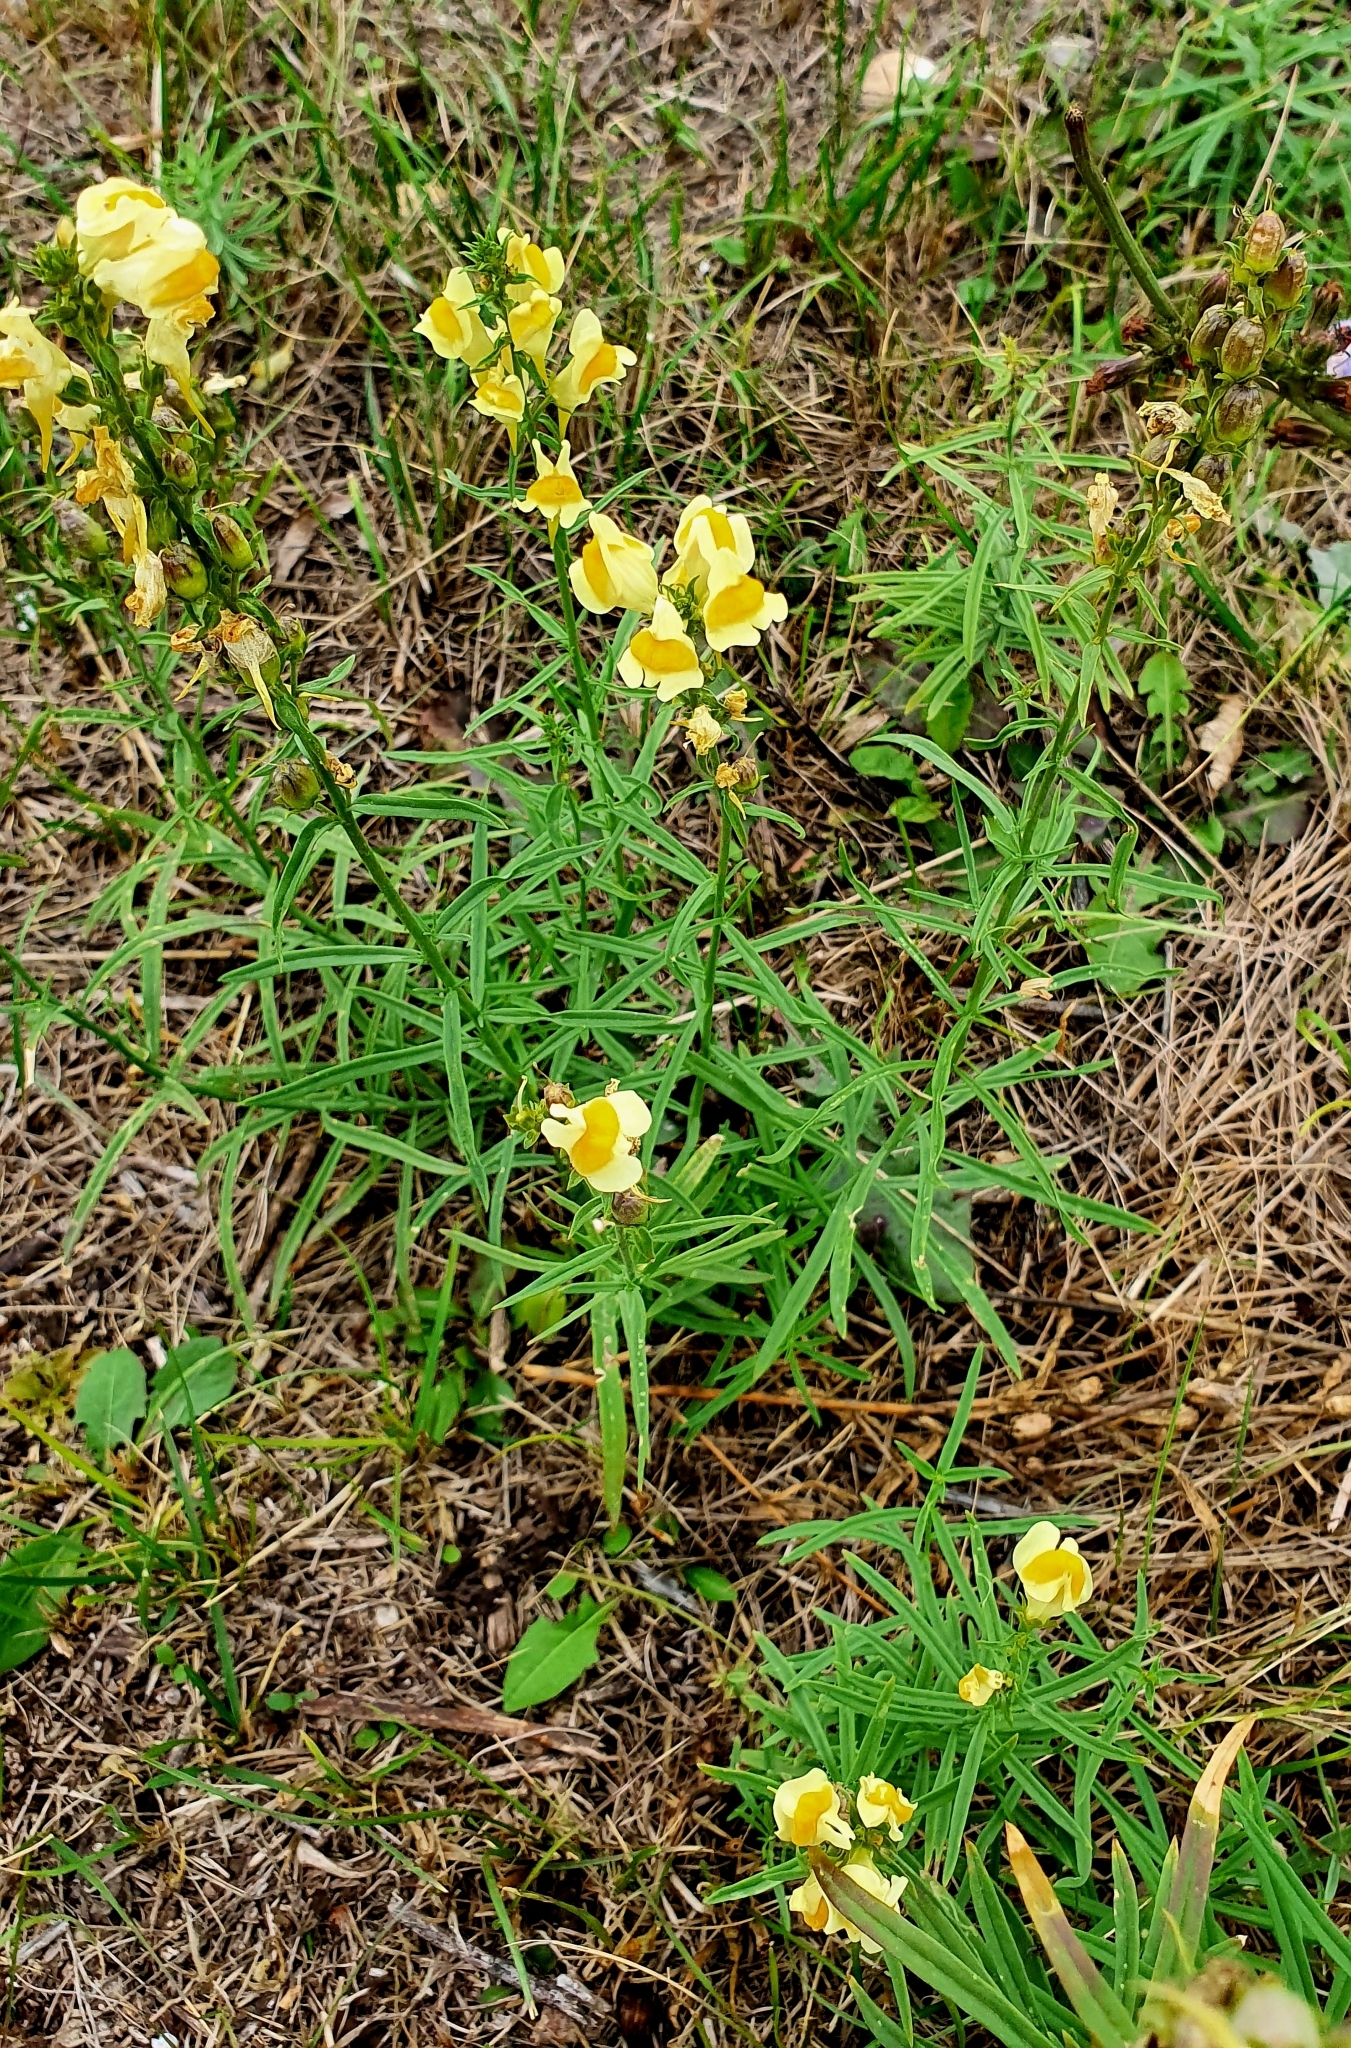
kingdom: Plantae
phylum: Tracheophyta
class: Magnoliopsida
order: Lamiales
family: Plantaginaceae
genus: Linaria
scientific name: Linaria vulgaris
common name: Butter and eggs
